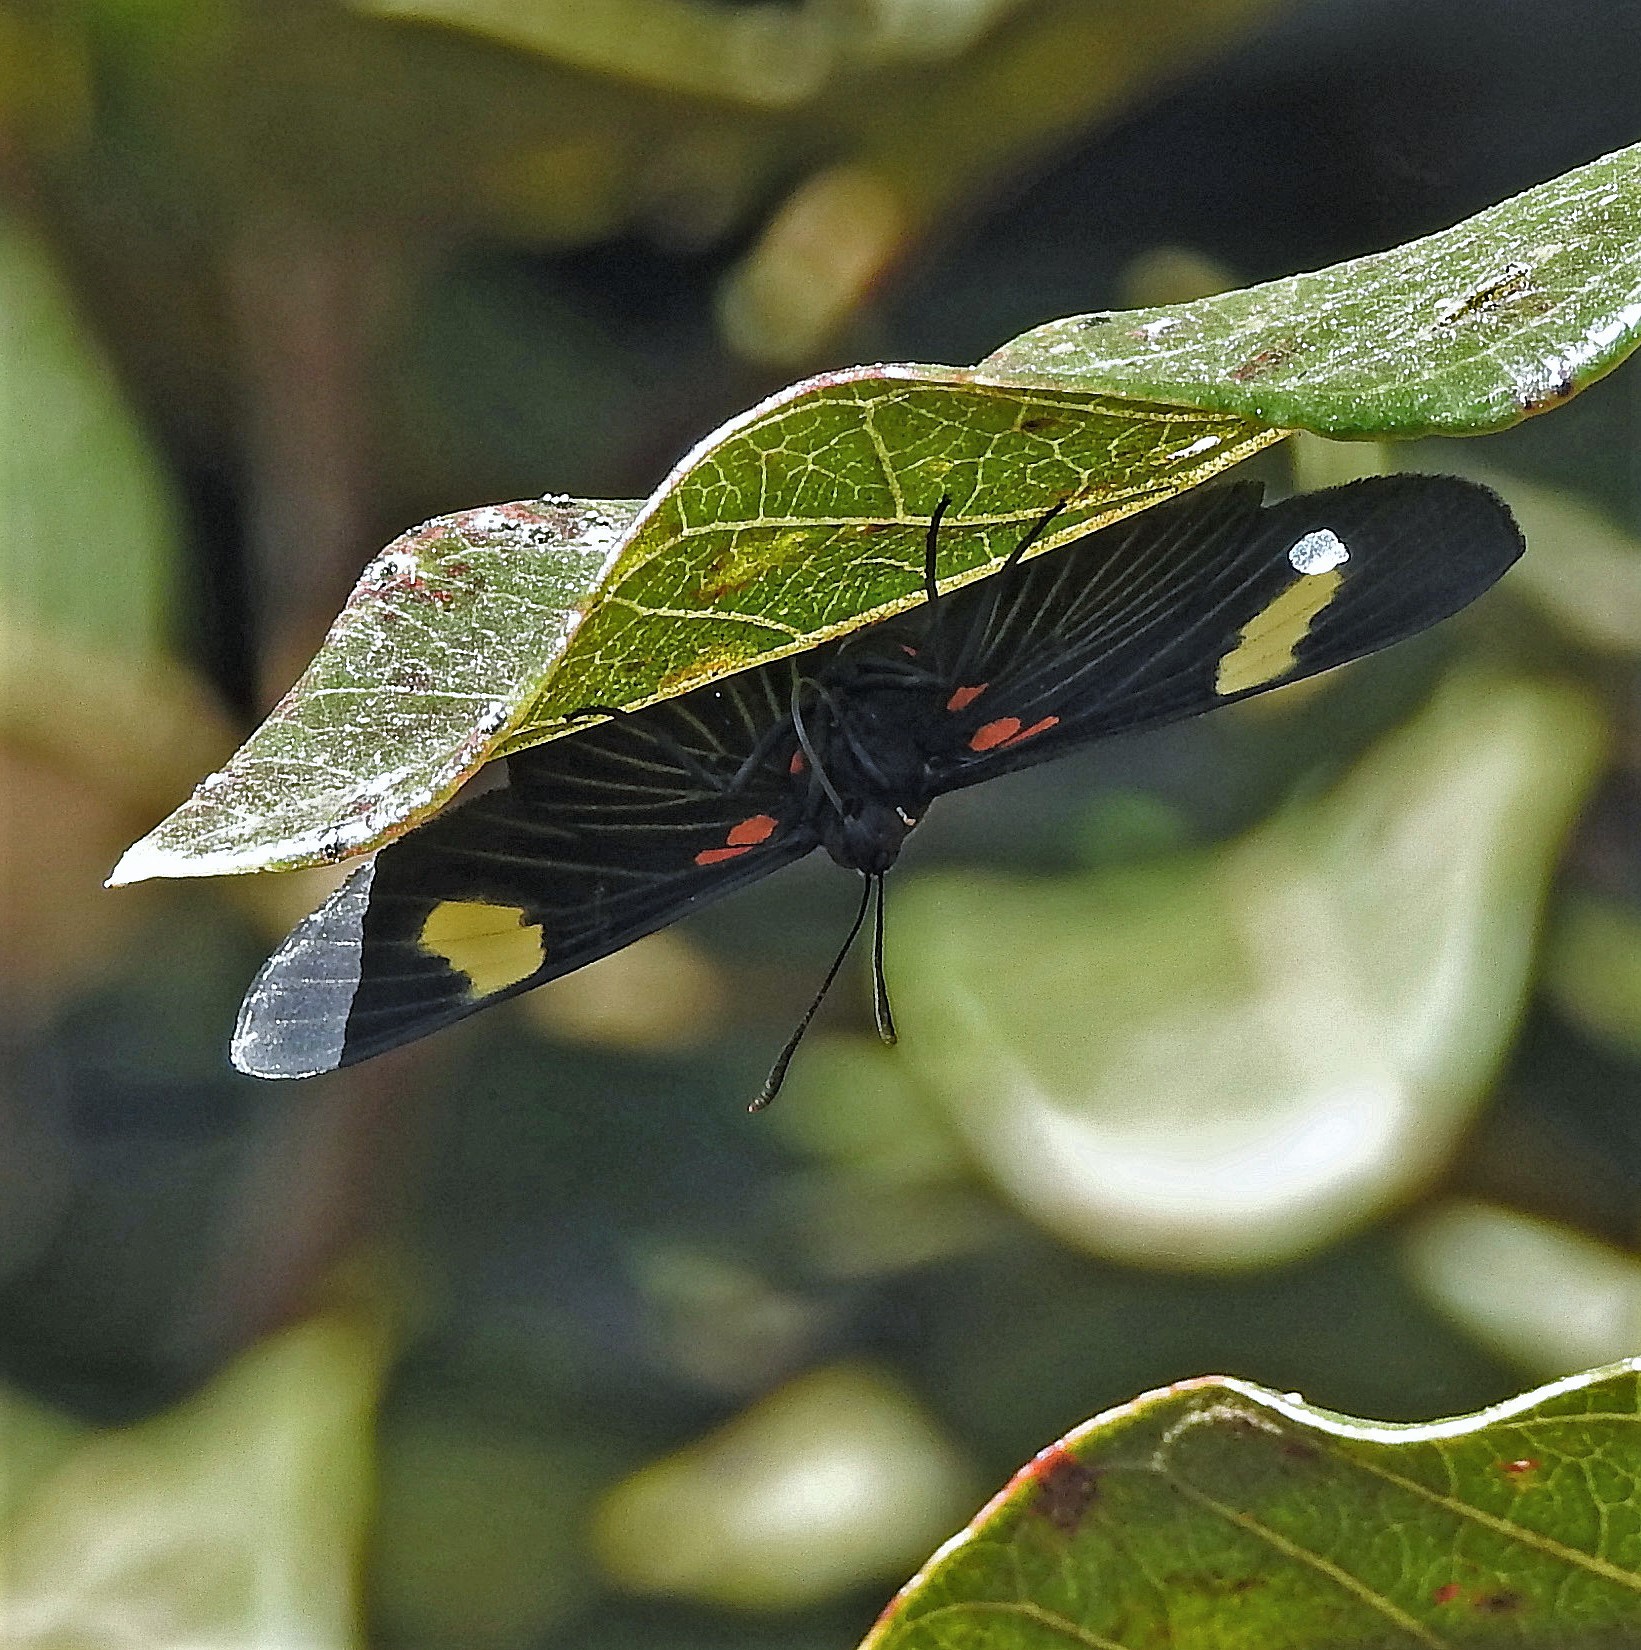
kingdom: Animalia
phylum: Arthropoda
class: Insecta
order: Lepidoptera
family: Lycaenidae
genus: Melanis
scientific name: Melanis aegates
